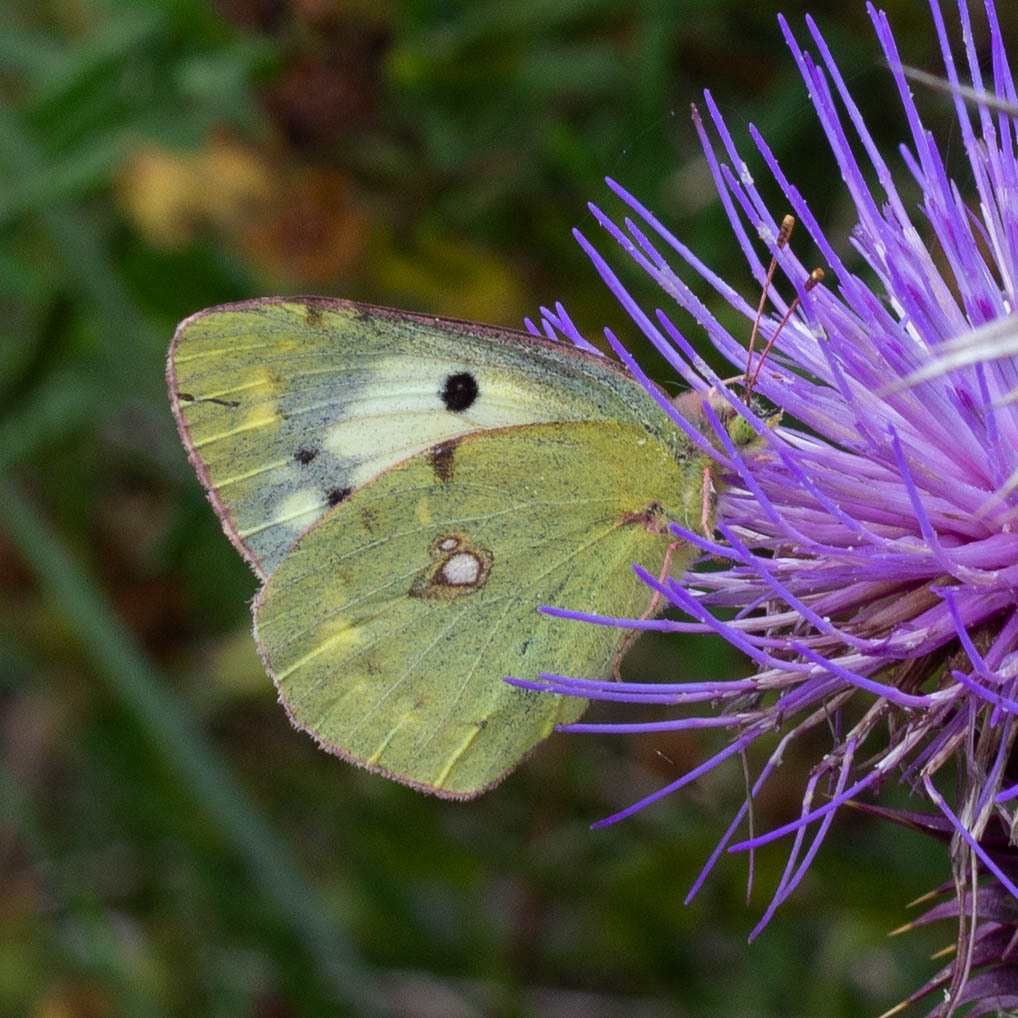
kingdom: Animalia
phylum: Arthropoda
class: Insecta
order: Lepidoptera
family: Pieridae
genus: Colias
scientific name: Colias croceus
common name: Clouded yellow
